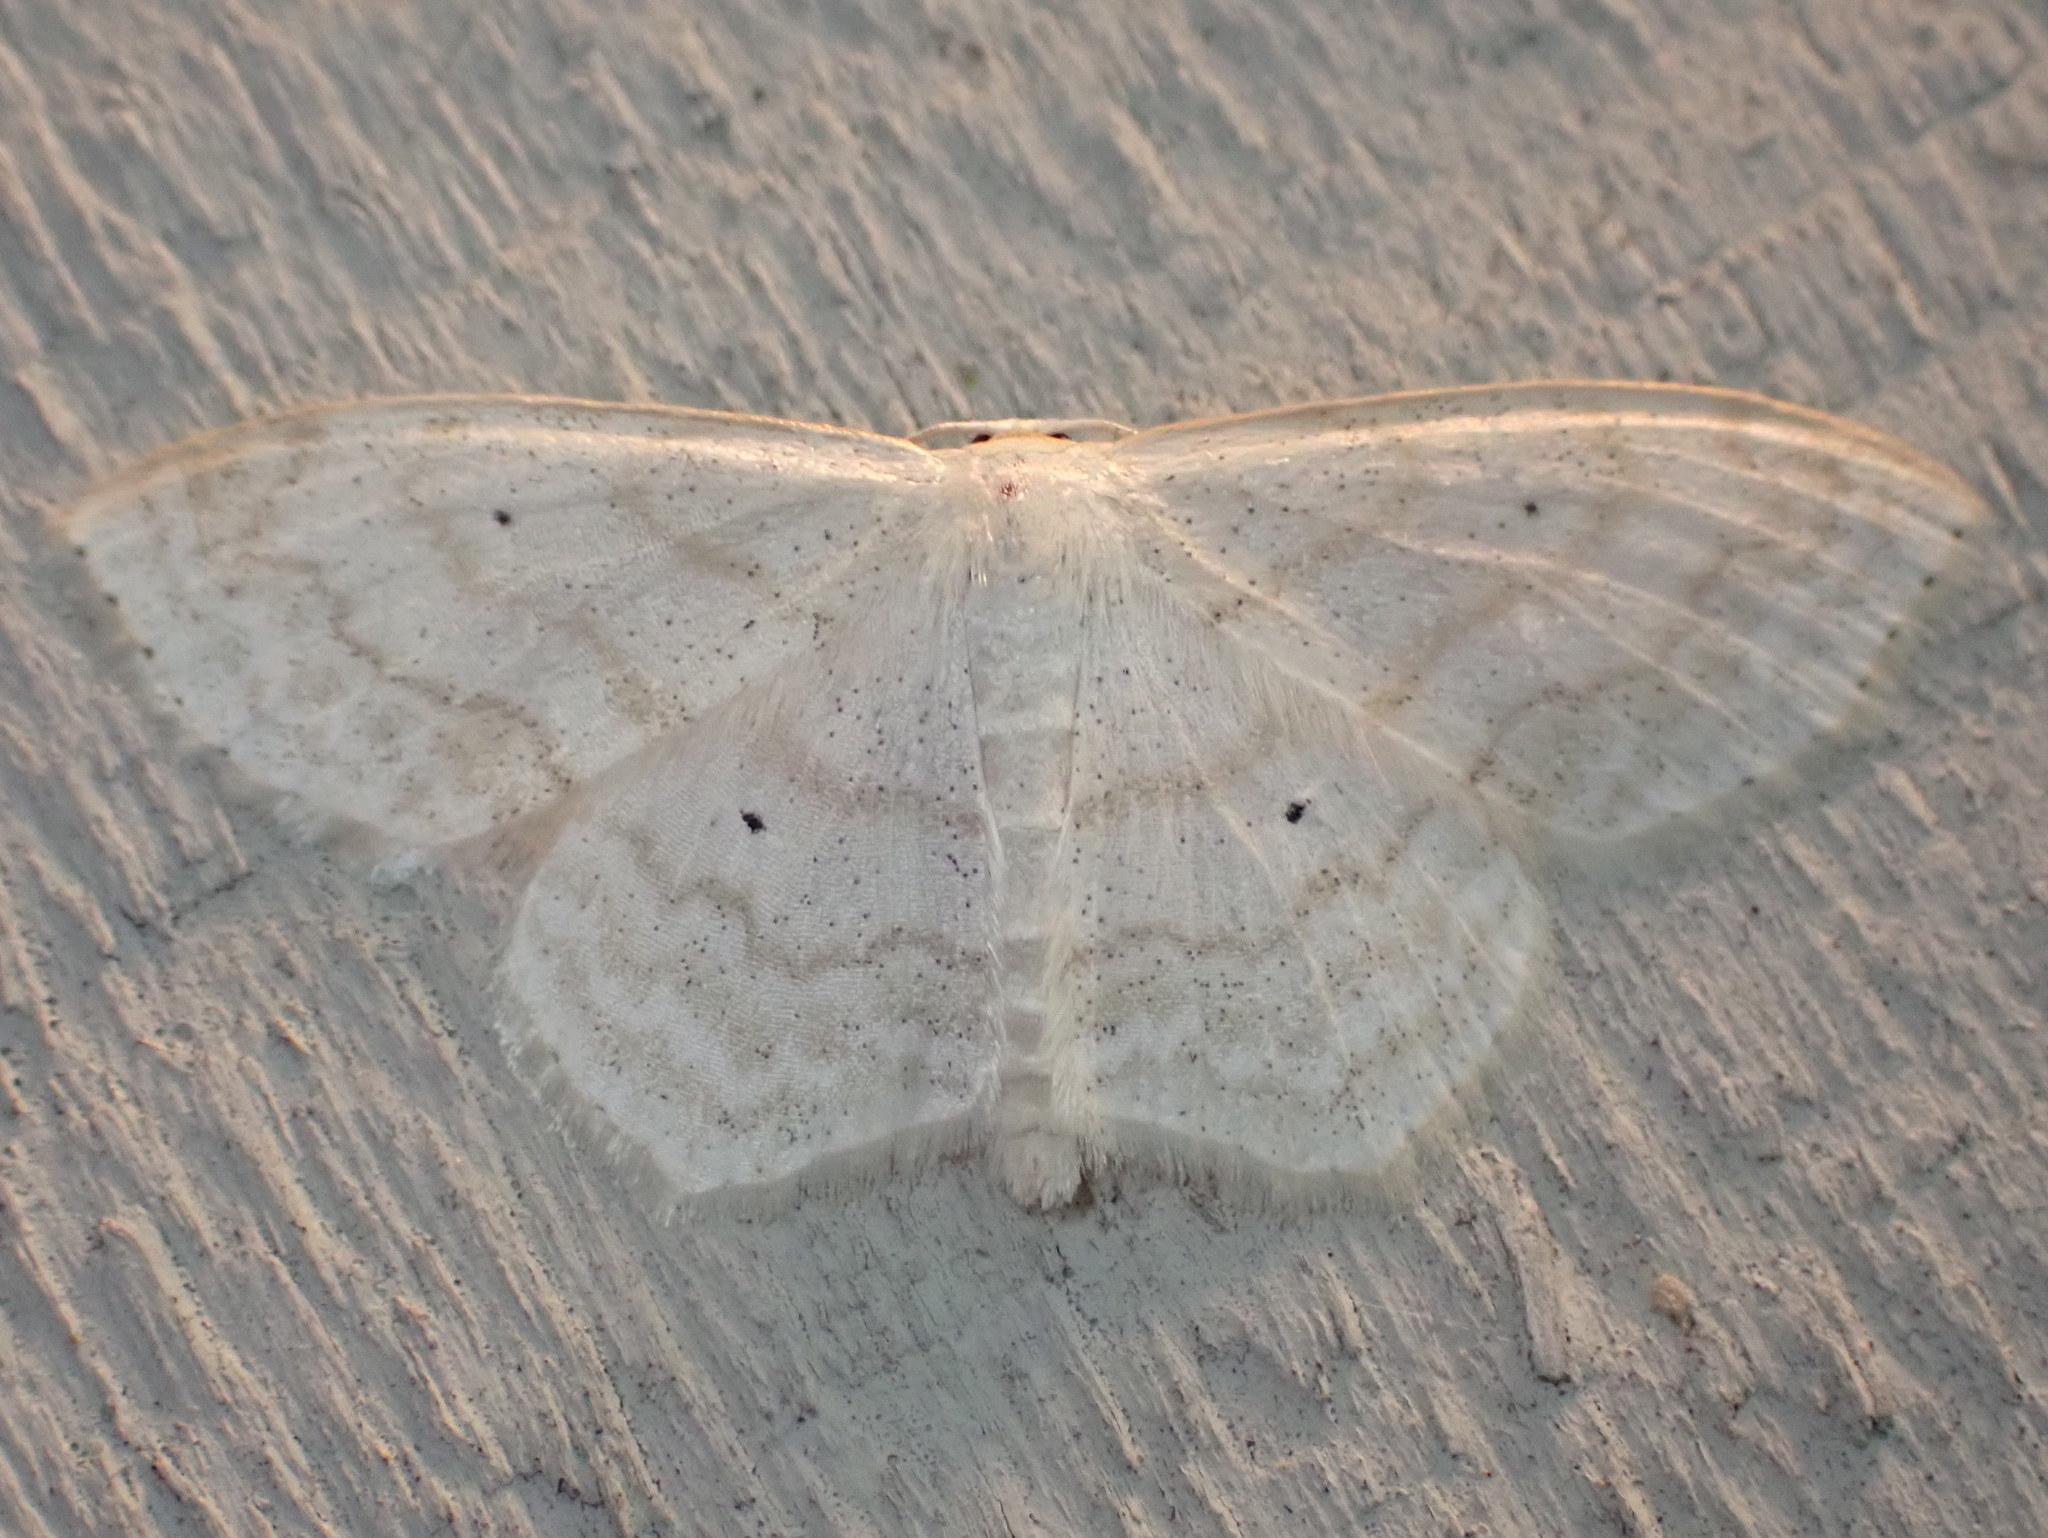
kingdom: Animalia
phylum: Arthropoda
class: Insecta
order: Lepidoptera
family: Geometridae
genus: Scopula
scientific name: Scopula limboundata
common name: Large lace border
